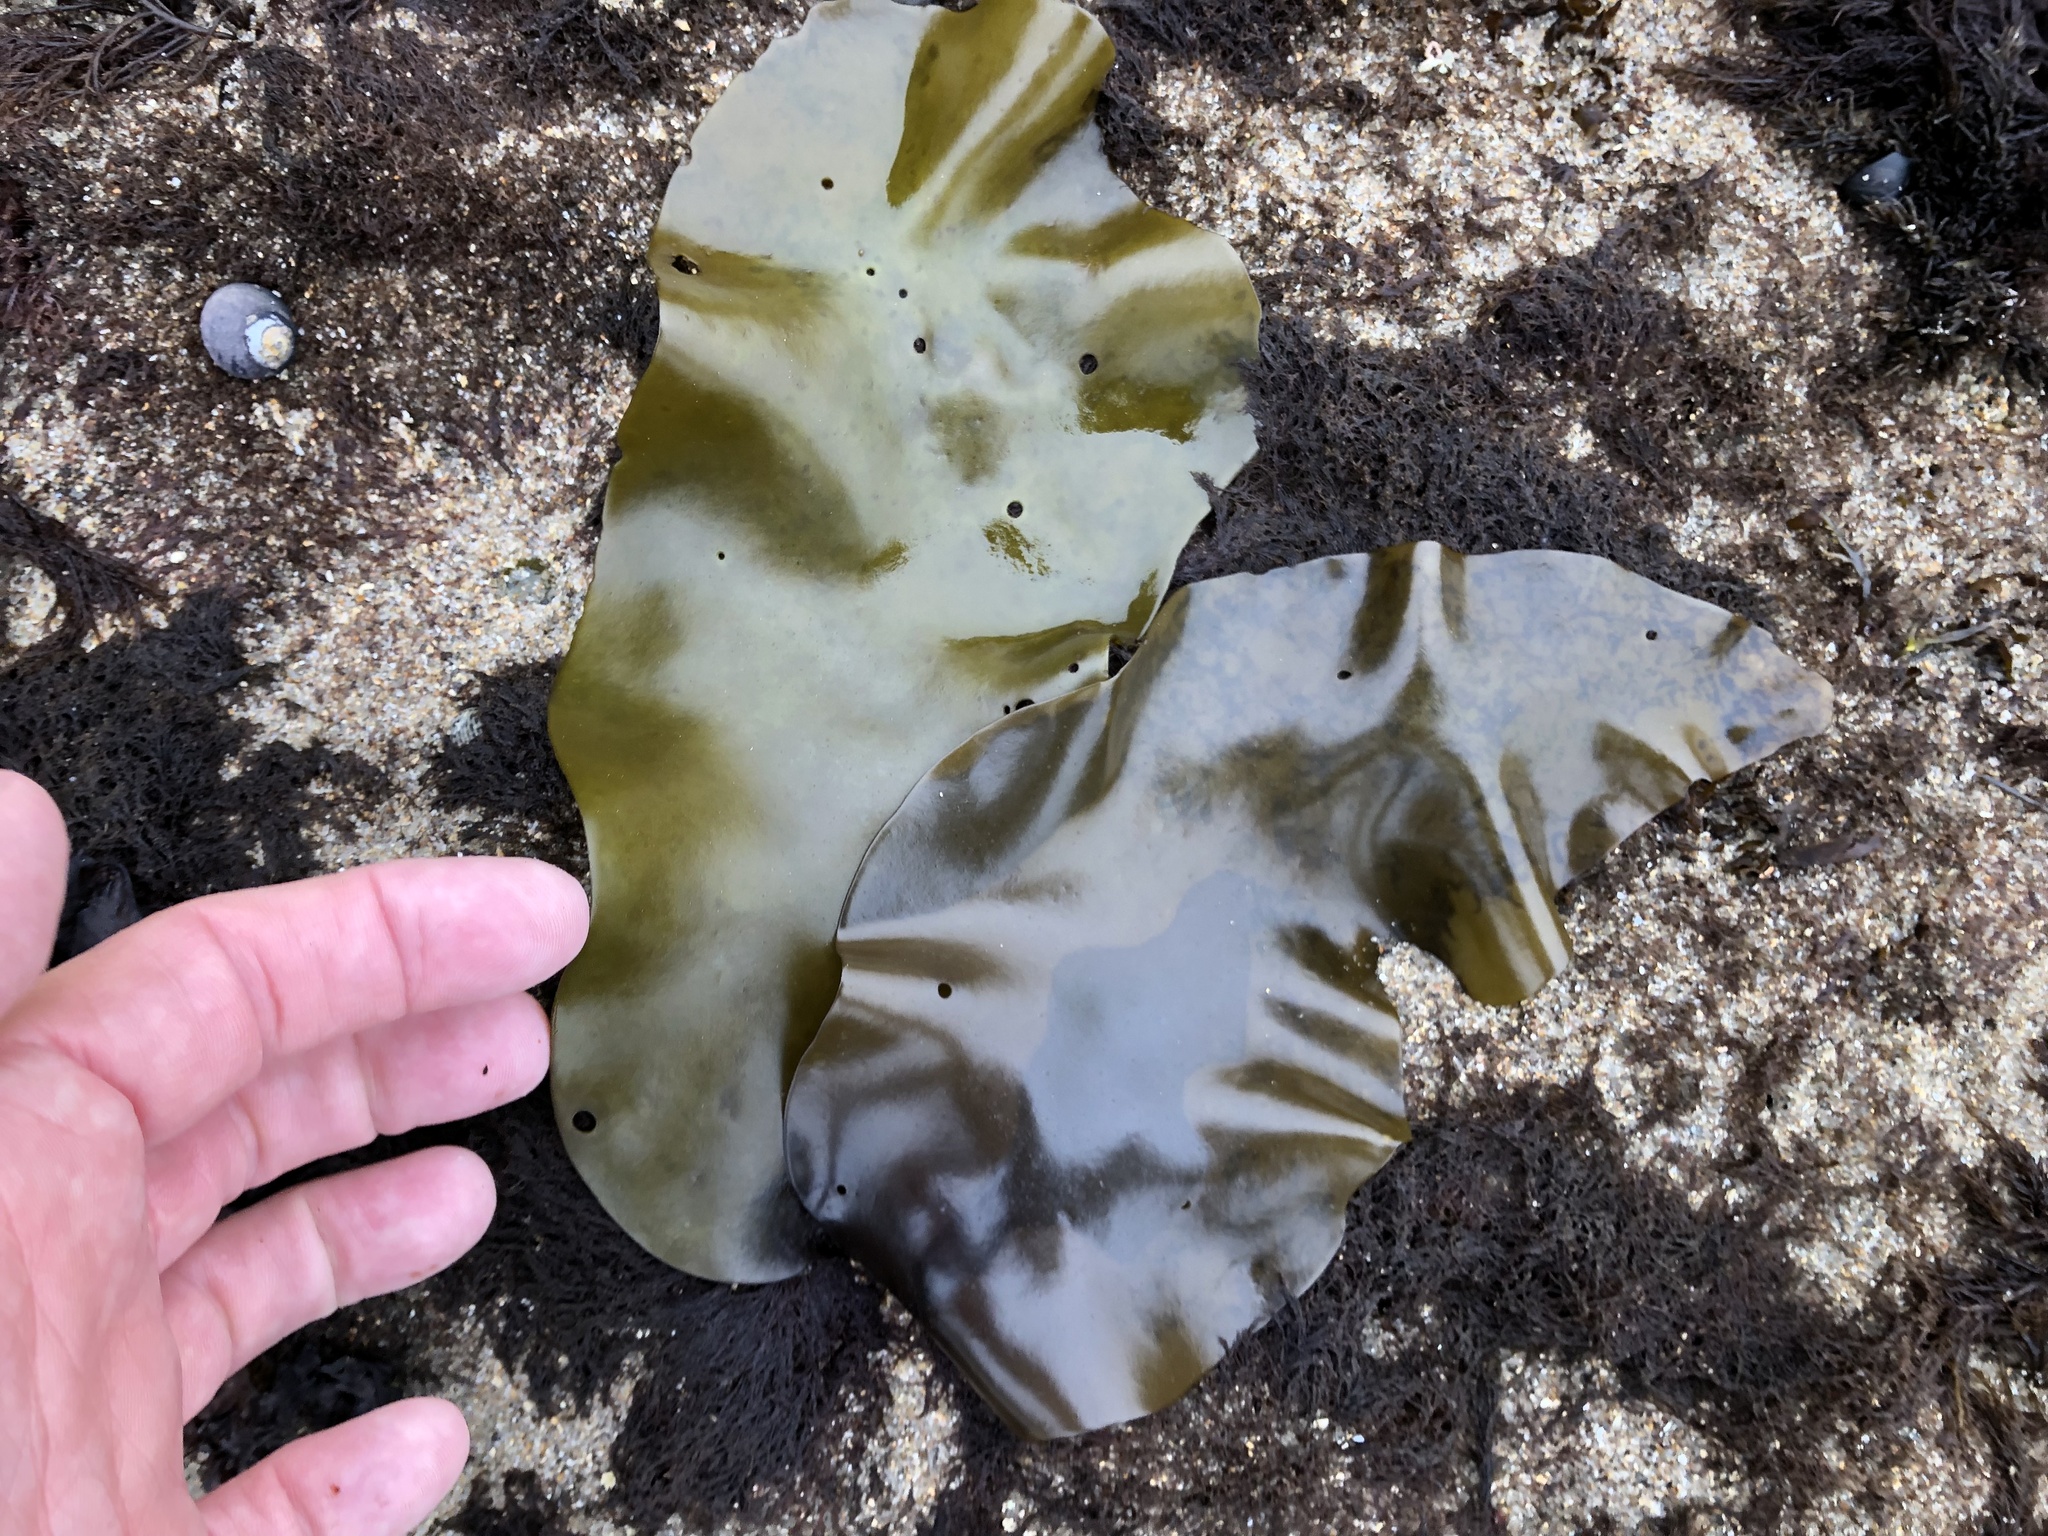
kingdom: Plantae
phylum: Rhodophyta
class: Florideophyceae
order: Gigartinales
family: Gigartinaceae
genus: Mazzaella
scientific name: Mazzaella splendens
